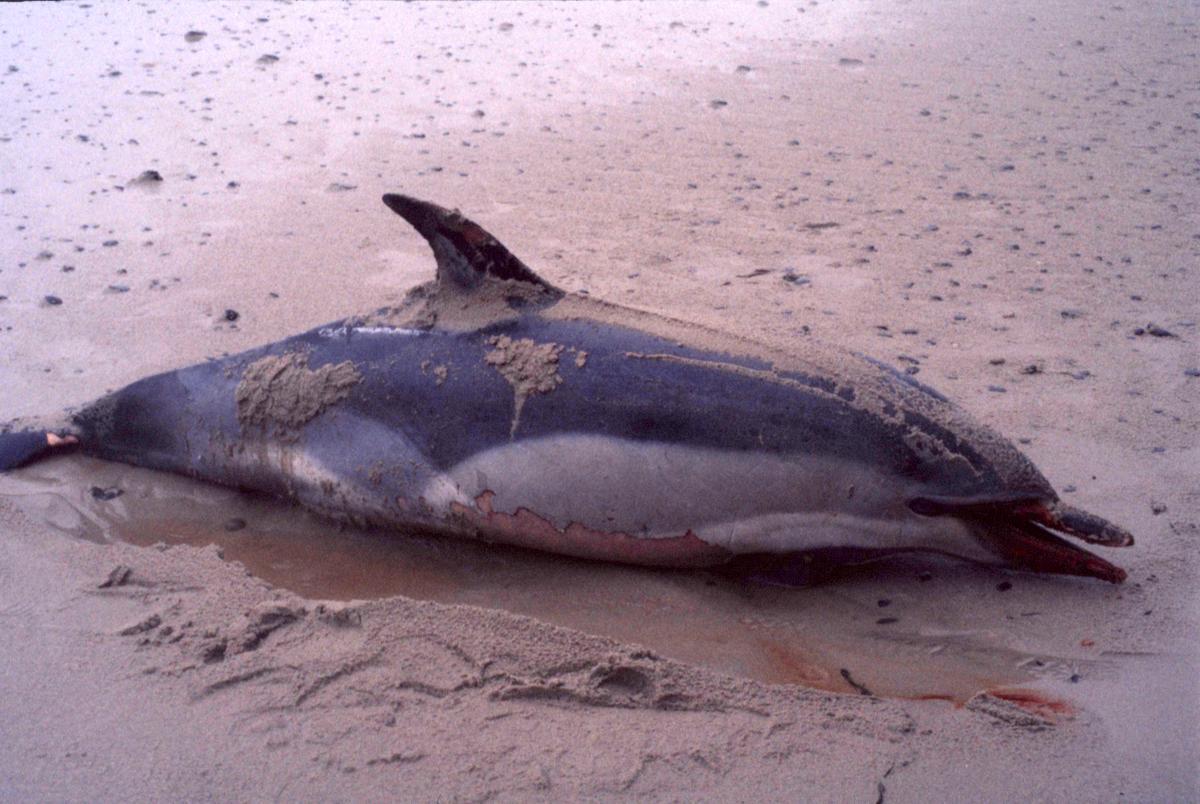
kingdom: Animalia
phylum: Chordata
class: Mammalia
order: Cetacea
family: Delphinidae
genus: Delphinus
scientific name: Delphinus delphis
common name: Common dolphin
